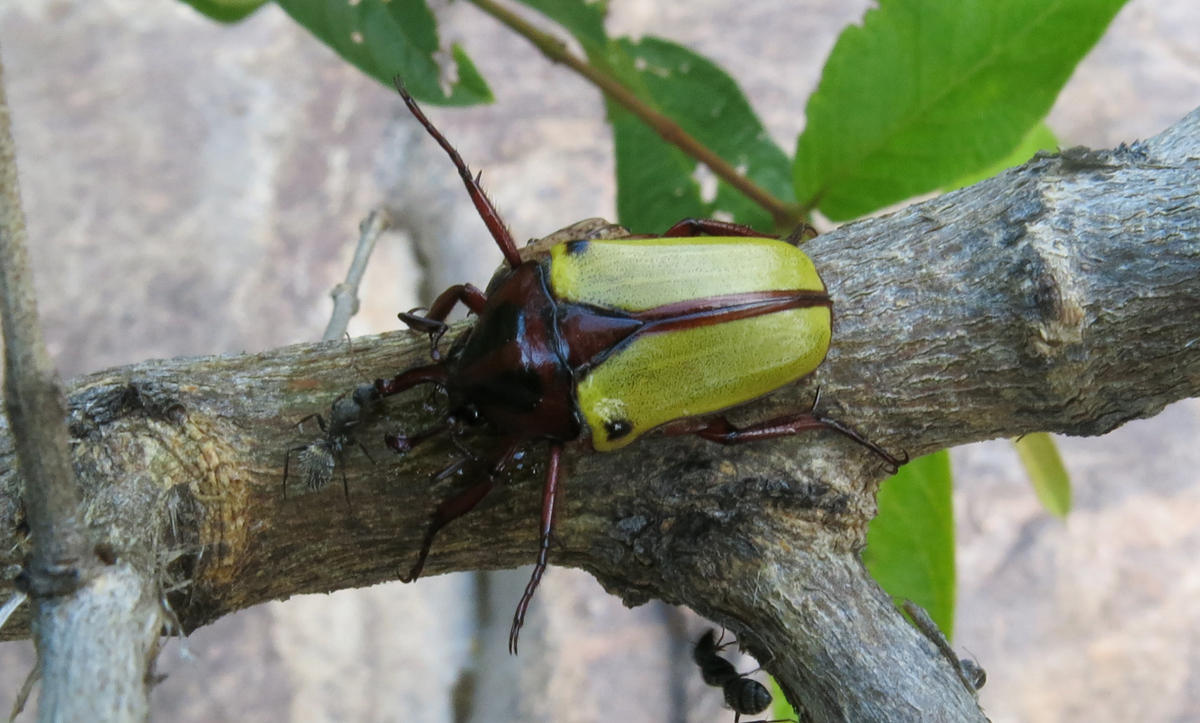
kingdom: Animalia
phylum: Arthropoda
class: Insecta
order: Coleoptera
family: Scarabaeidae
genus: Anisorrhina
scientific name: Anisorrhina algoensis
